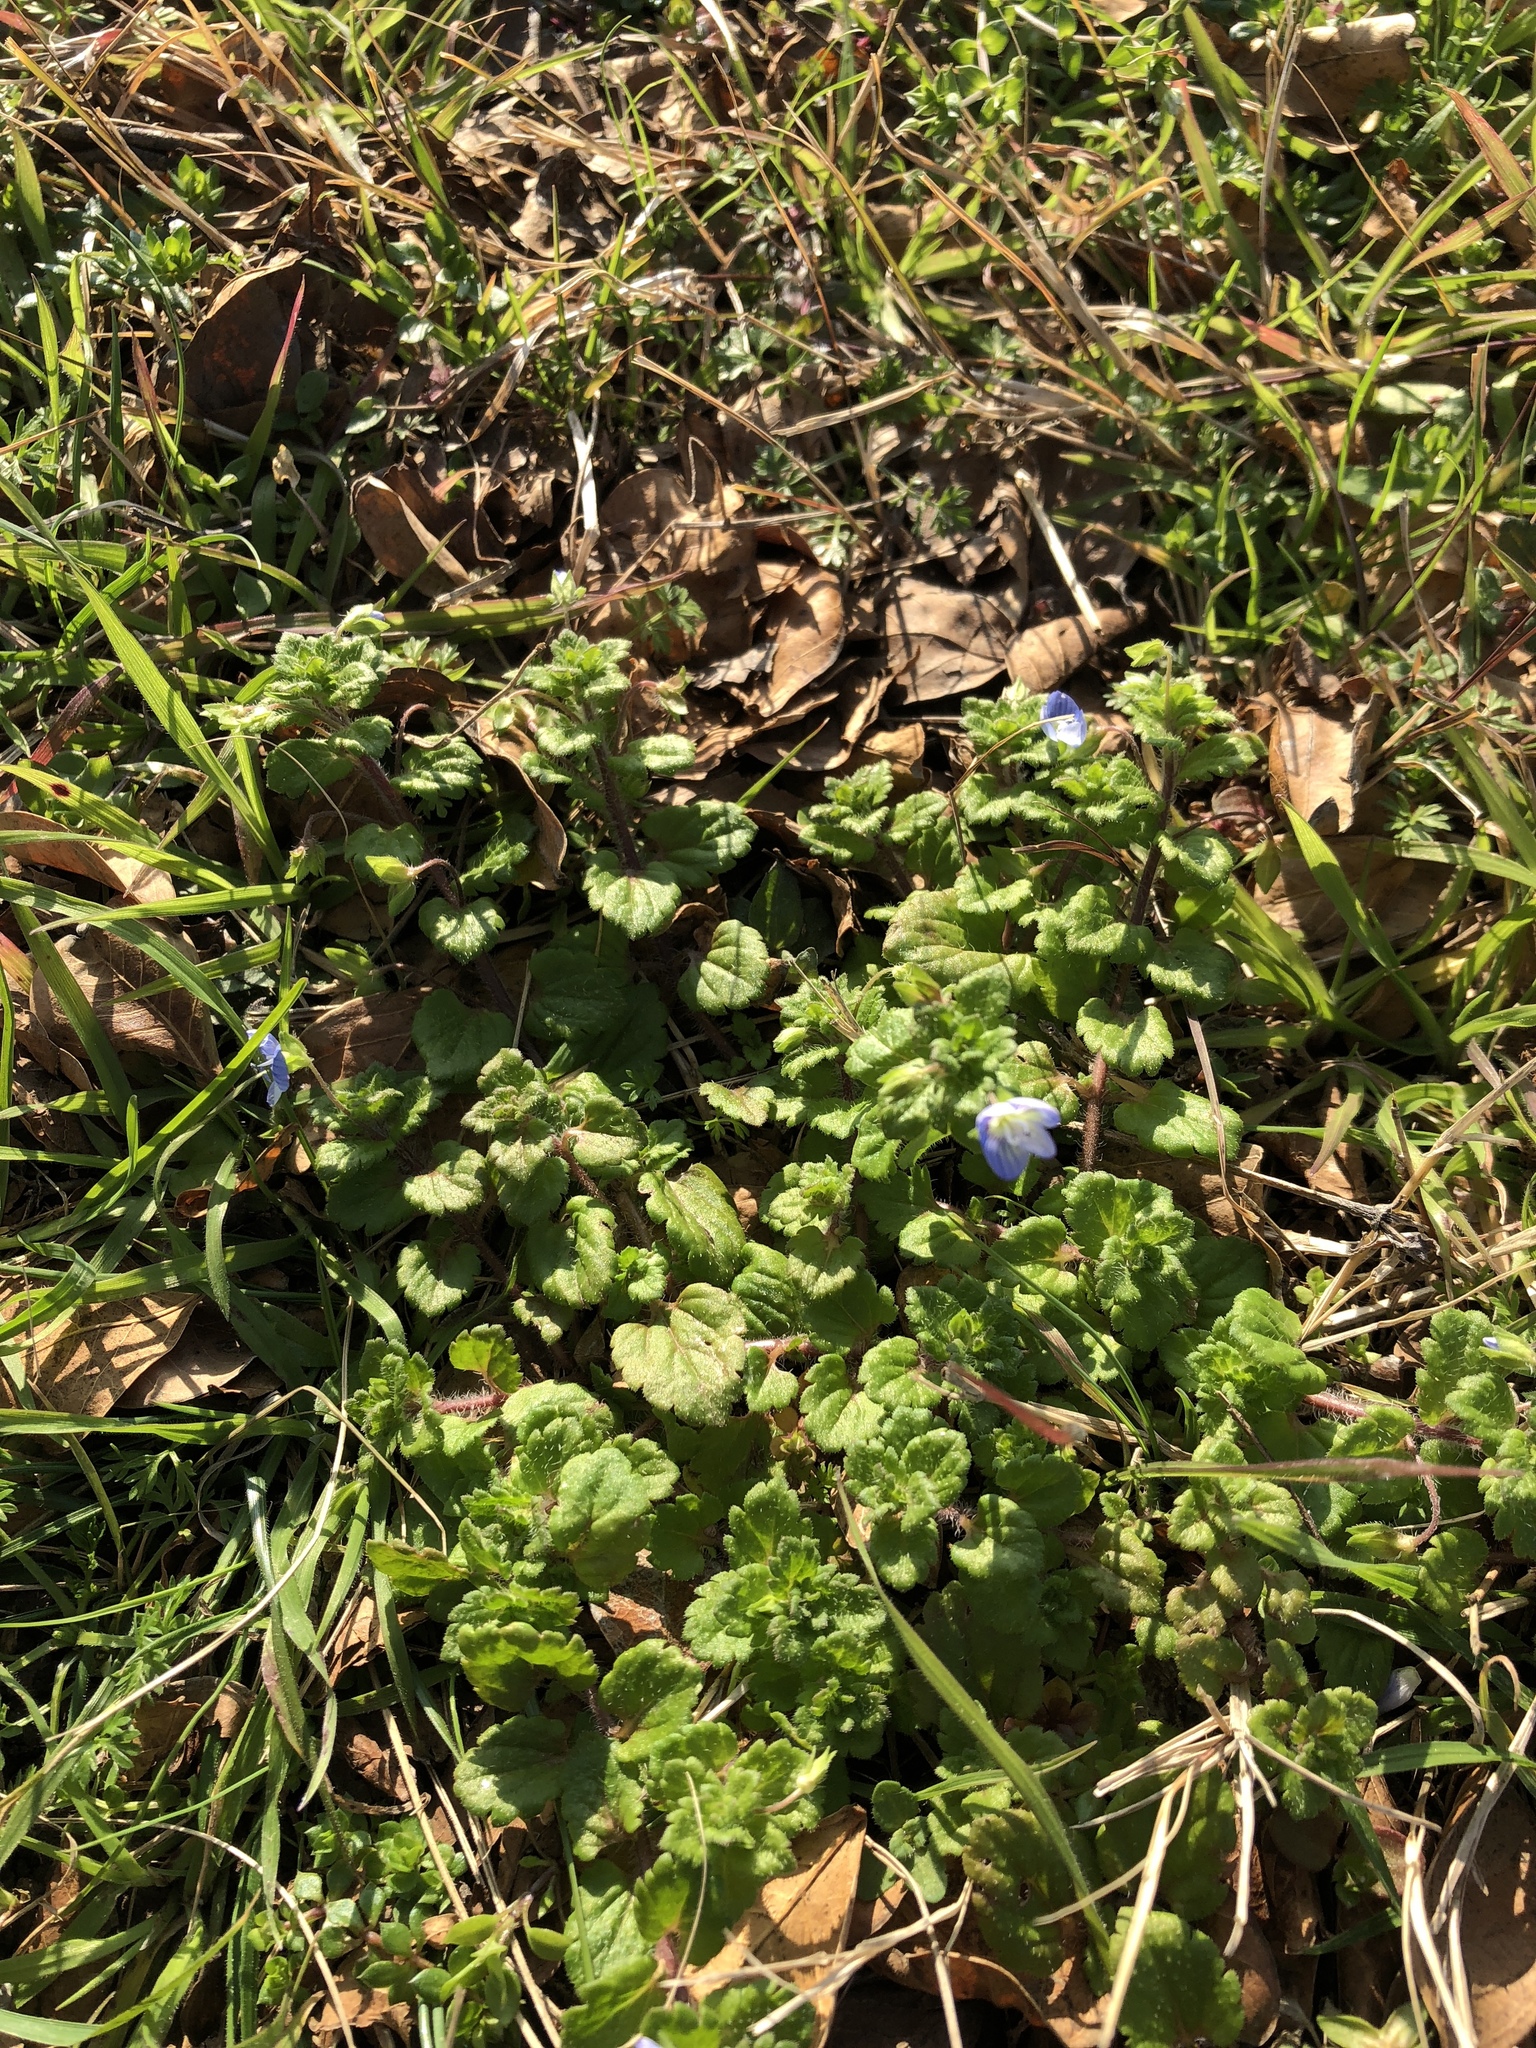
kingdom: Plantae
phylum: Tracheophyta
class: Magnoliopsida
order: Lamiales
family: Plantaginaceae
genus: Veronica
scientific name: Veronica persica
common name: Common field-speedwell
